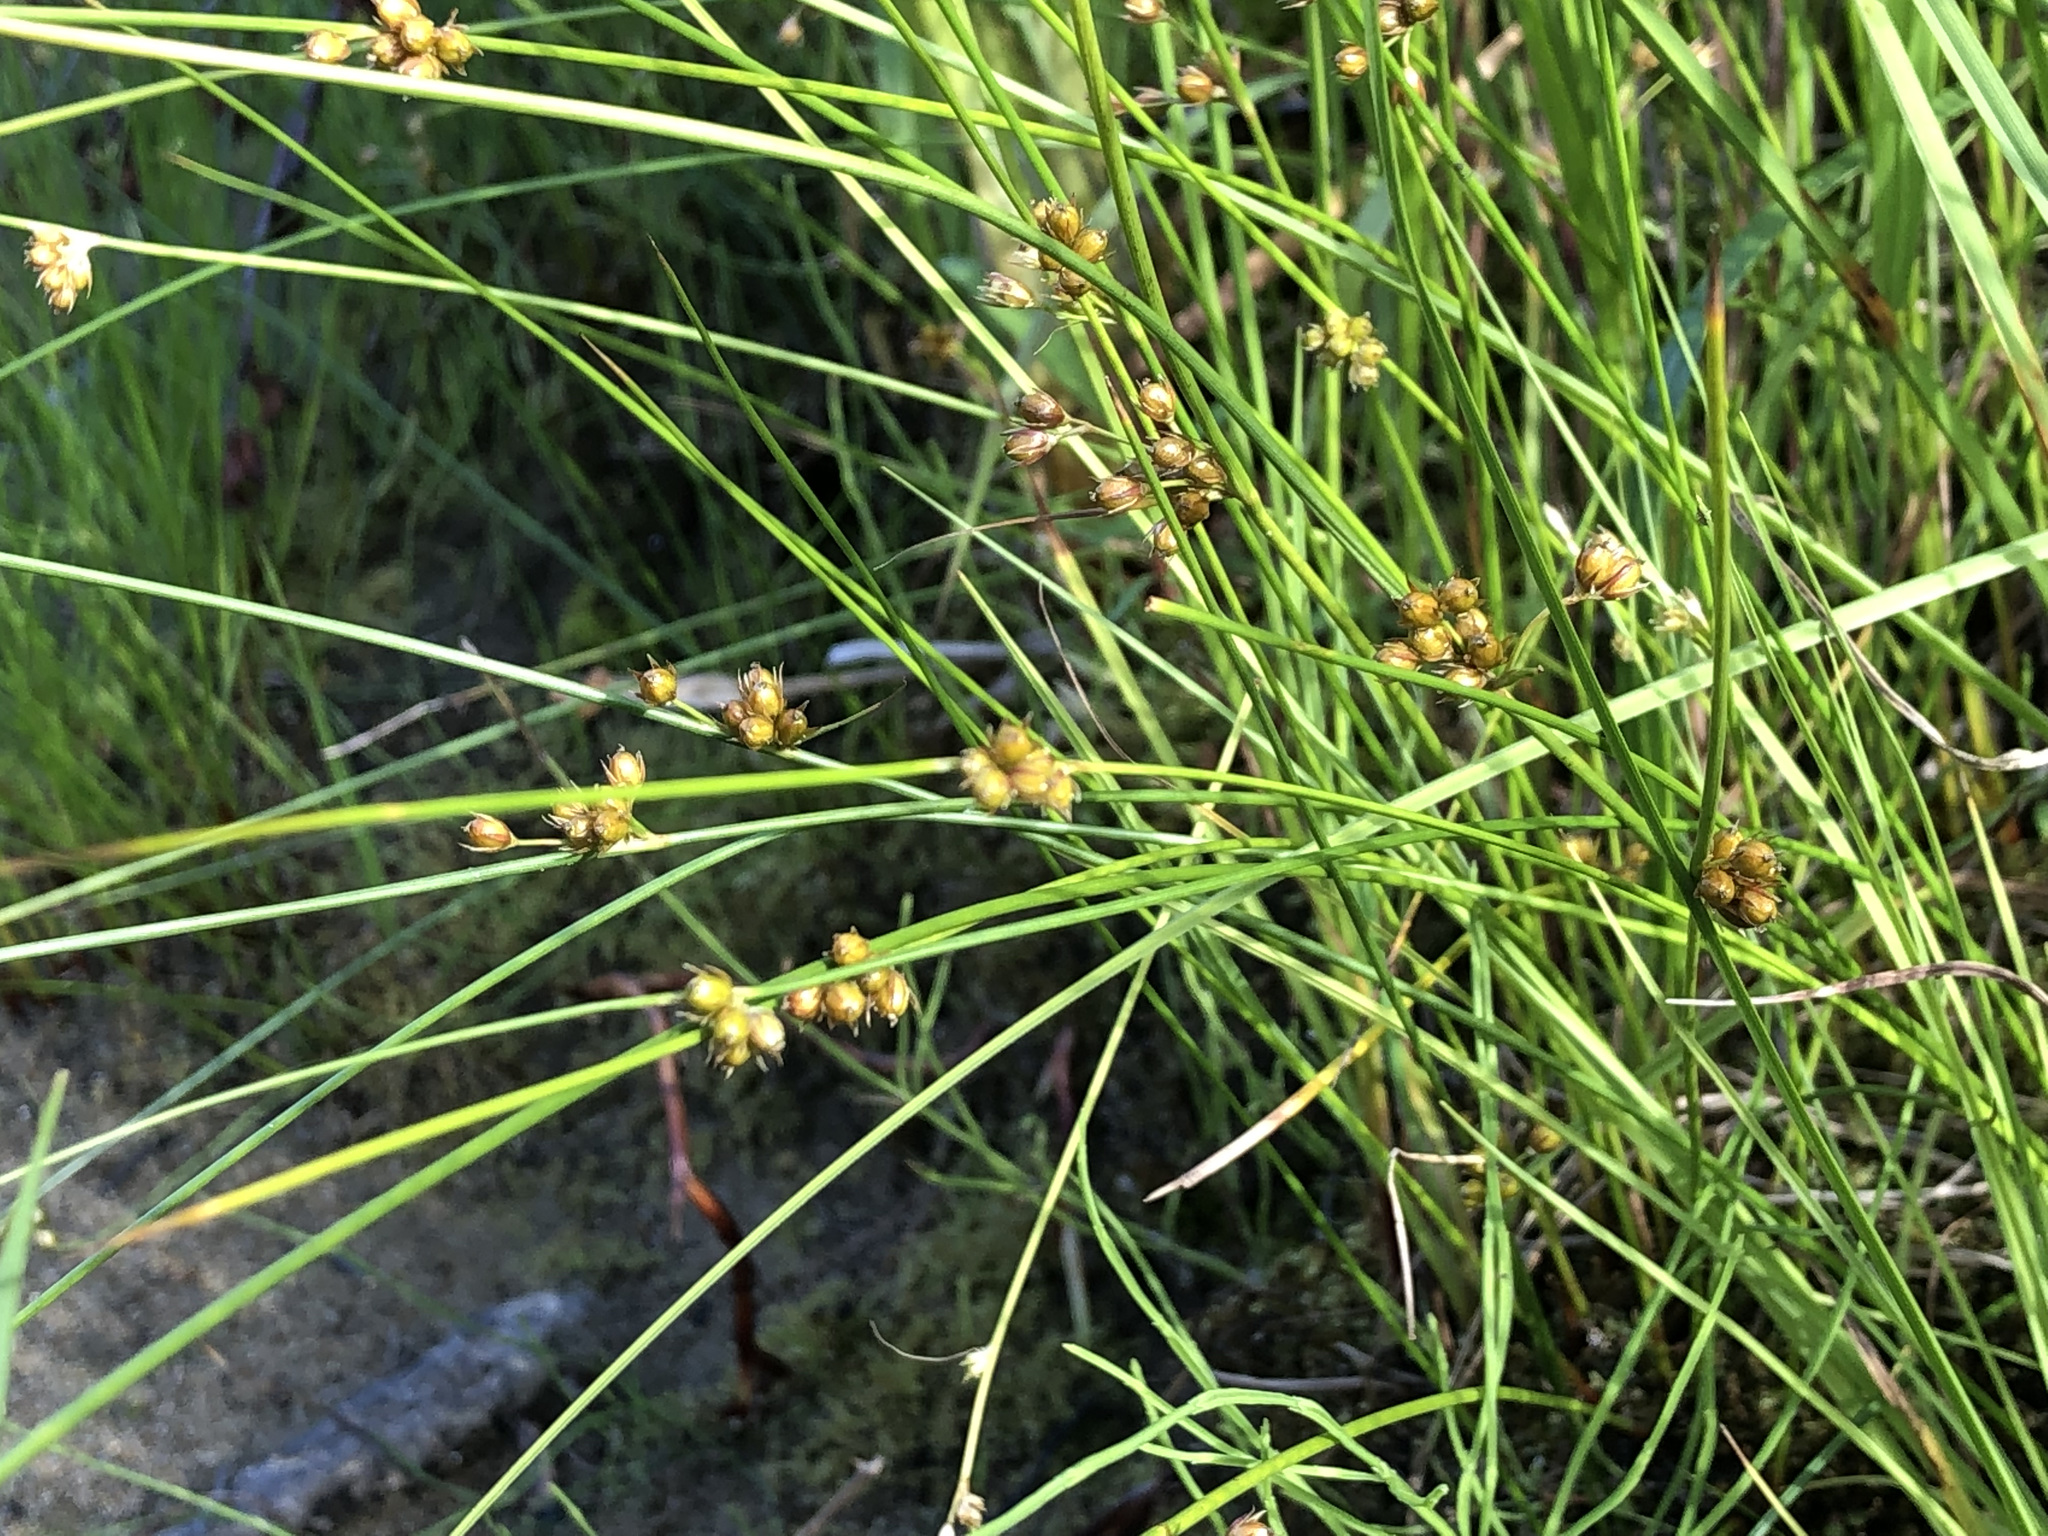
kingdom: Plantae
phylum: Tracheophyta
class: Liliopsida
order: Poales
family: Juncaceae
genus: Juncus
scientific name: Juncus filiformis
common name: Thread rush
